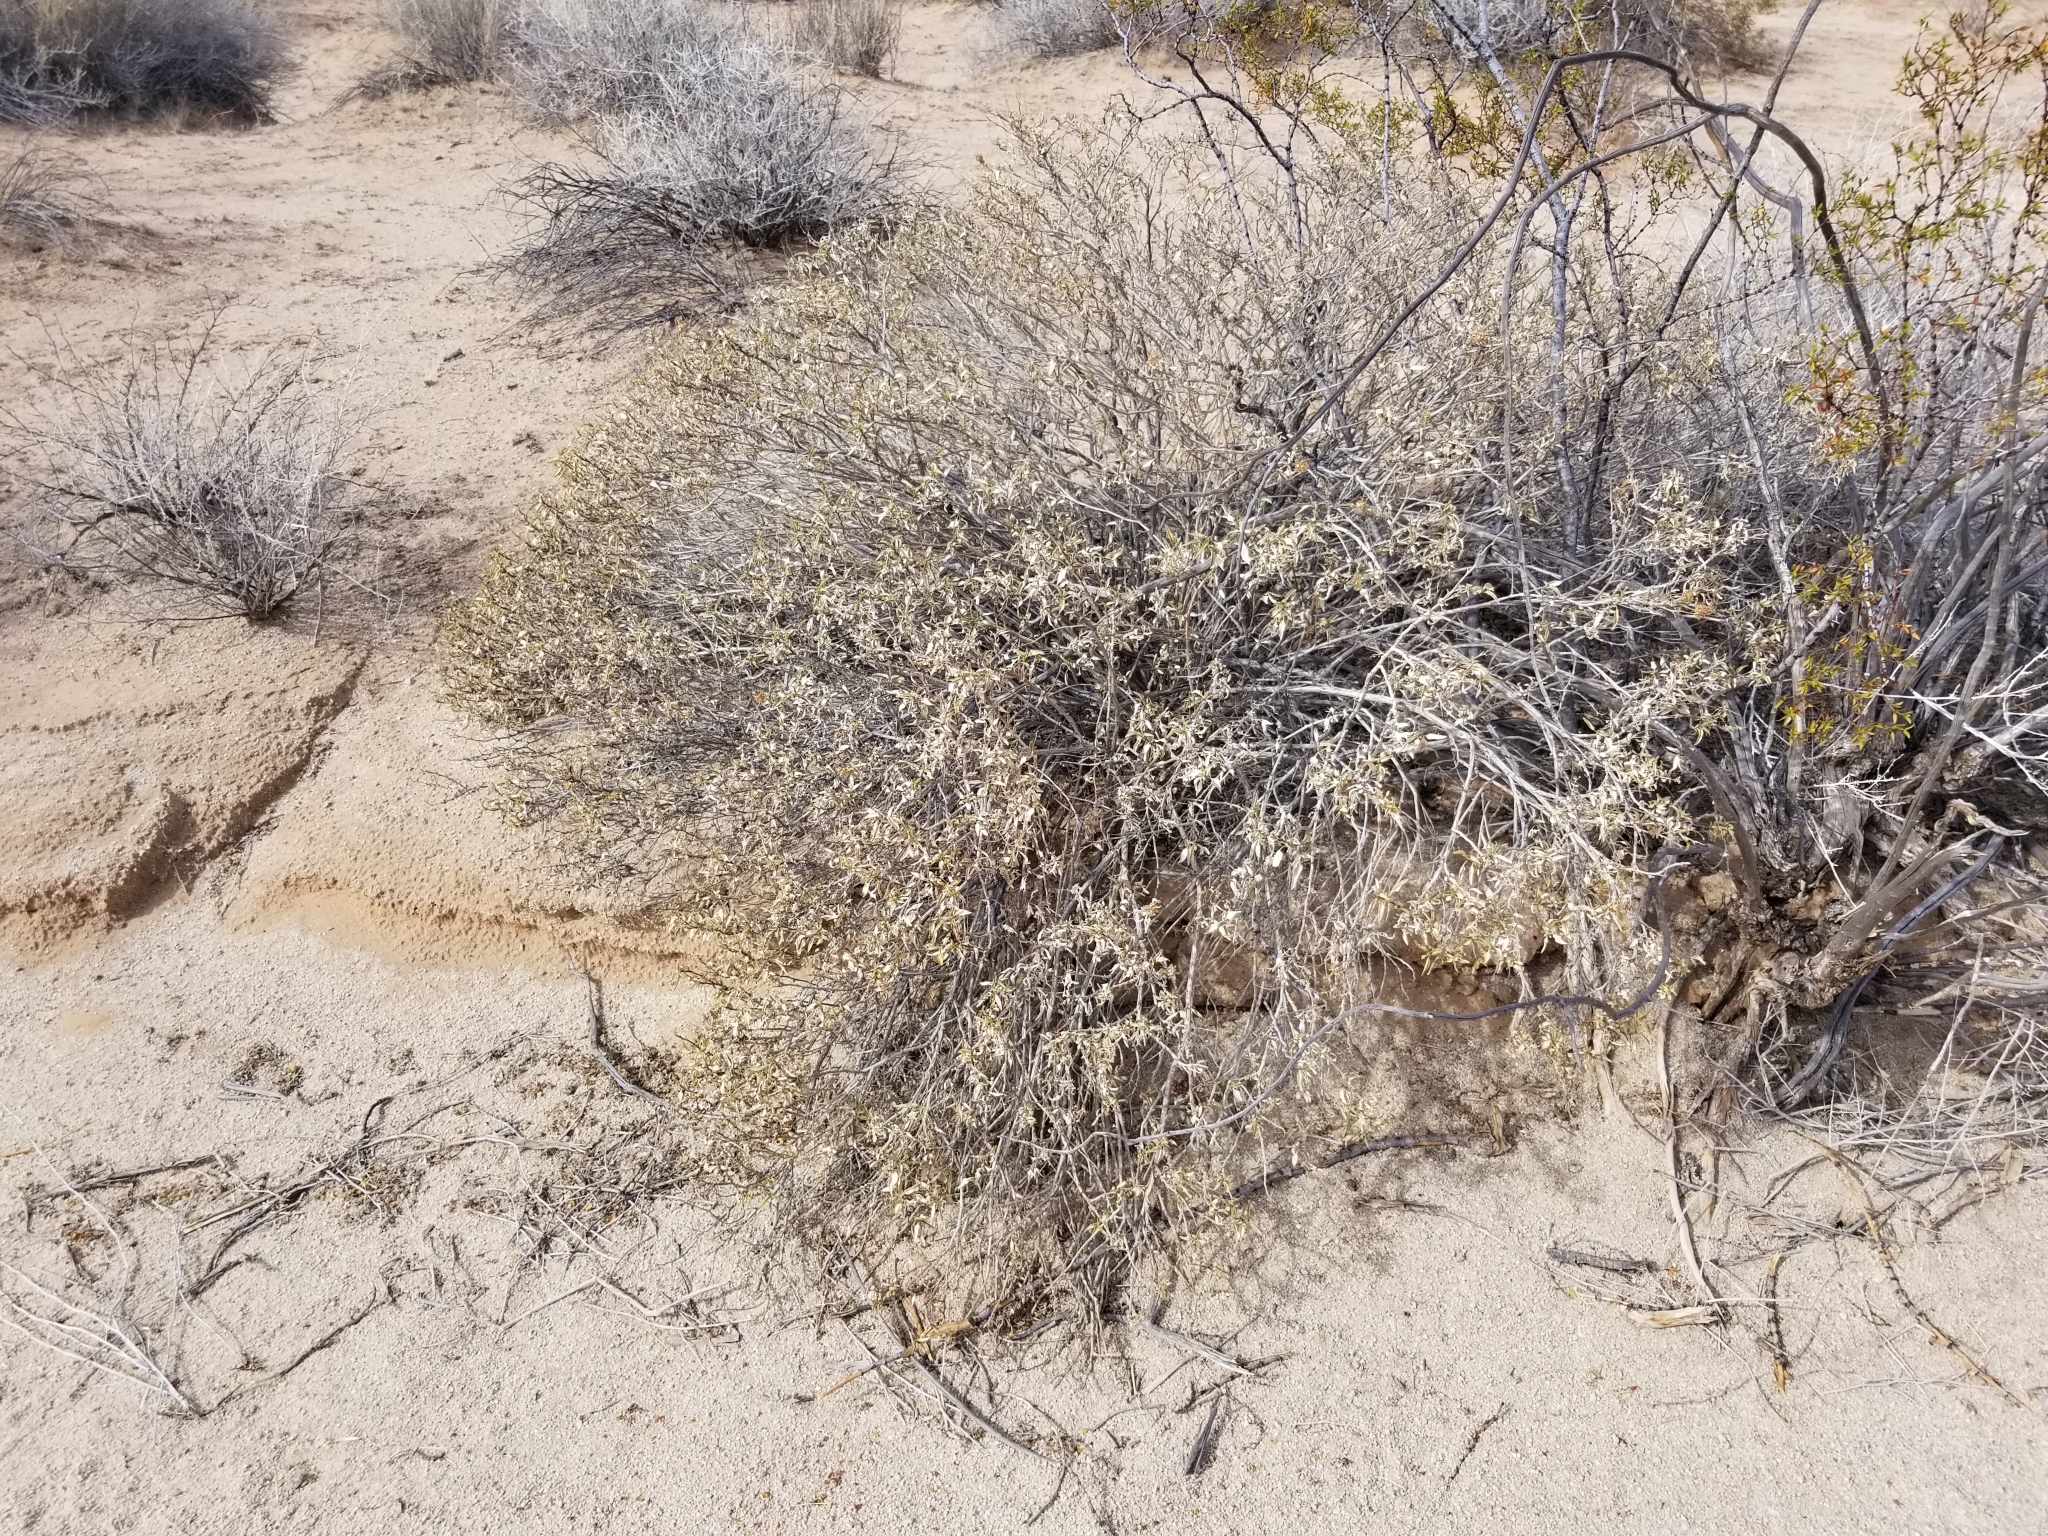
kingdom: Plantae
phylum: Tracheophyta
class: Magnoliopsida
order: Asterales
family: Asteraceae
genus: Ambrosia
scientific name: Ambrosia deltoidea
